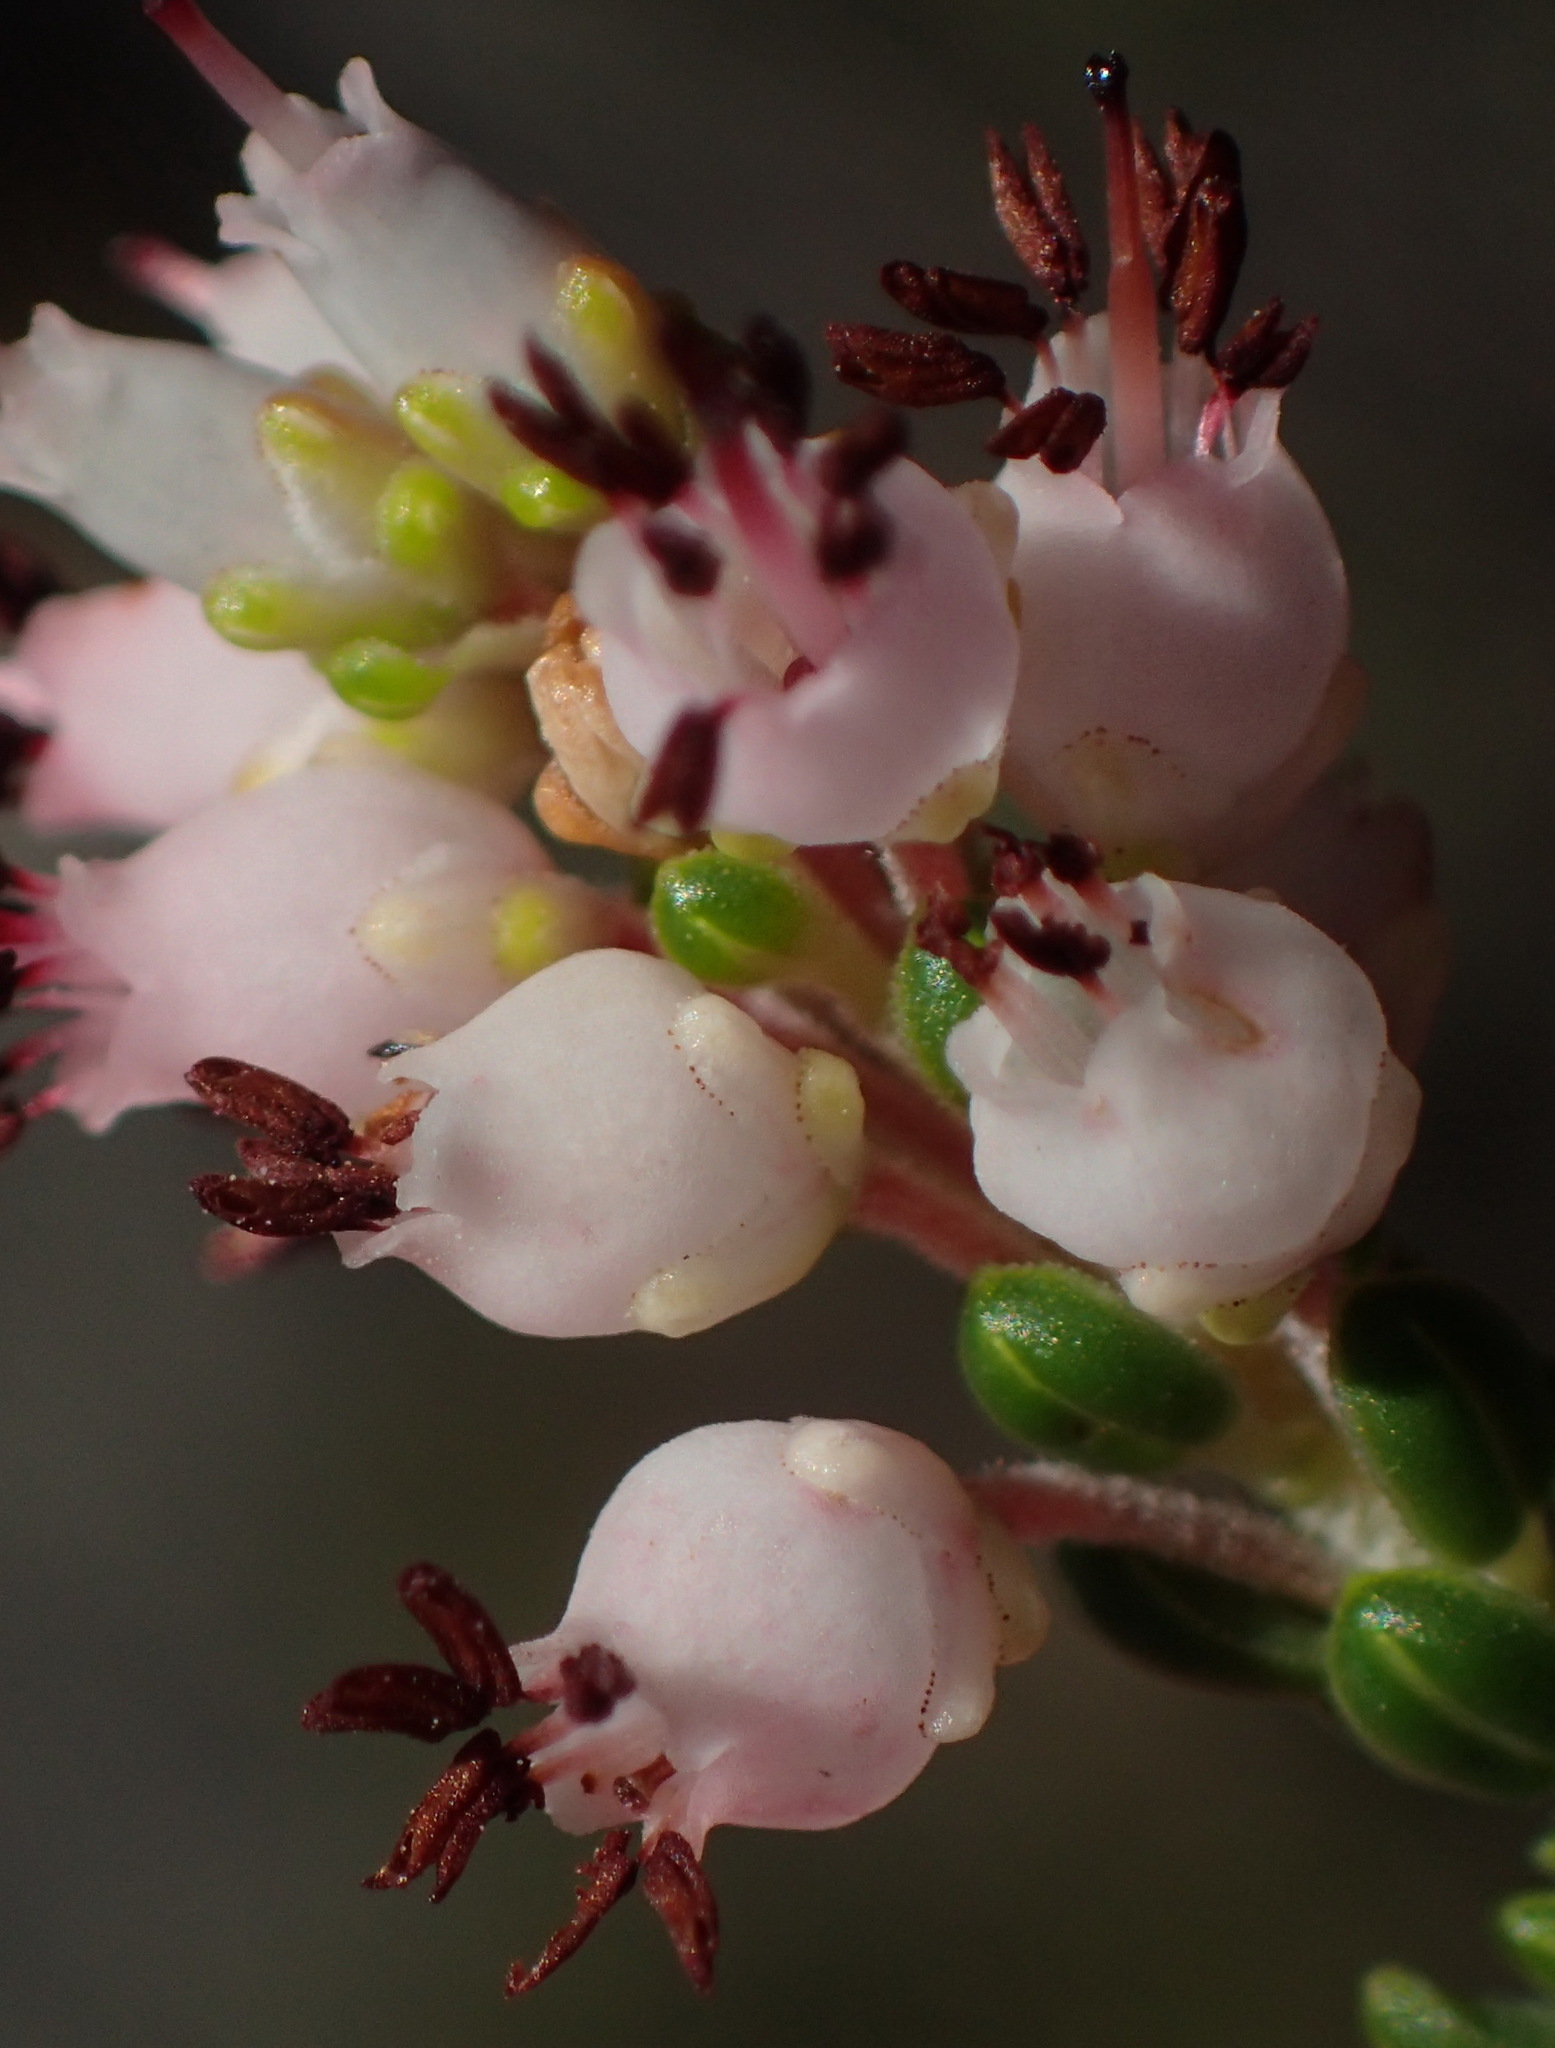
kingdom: Plantae
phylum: Tracheophyta
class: Magnoliopsida
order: Ericales
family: Ericaceae
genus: Erica
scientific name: Erica petraea
